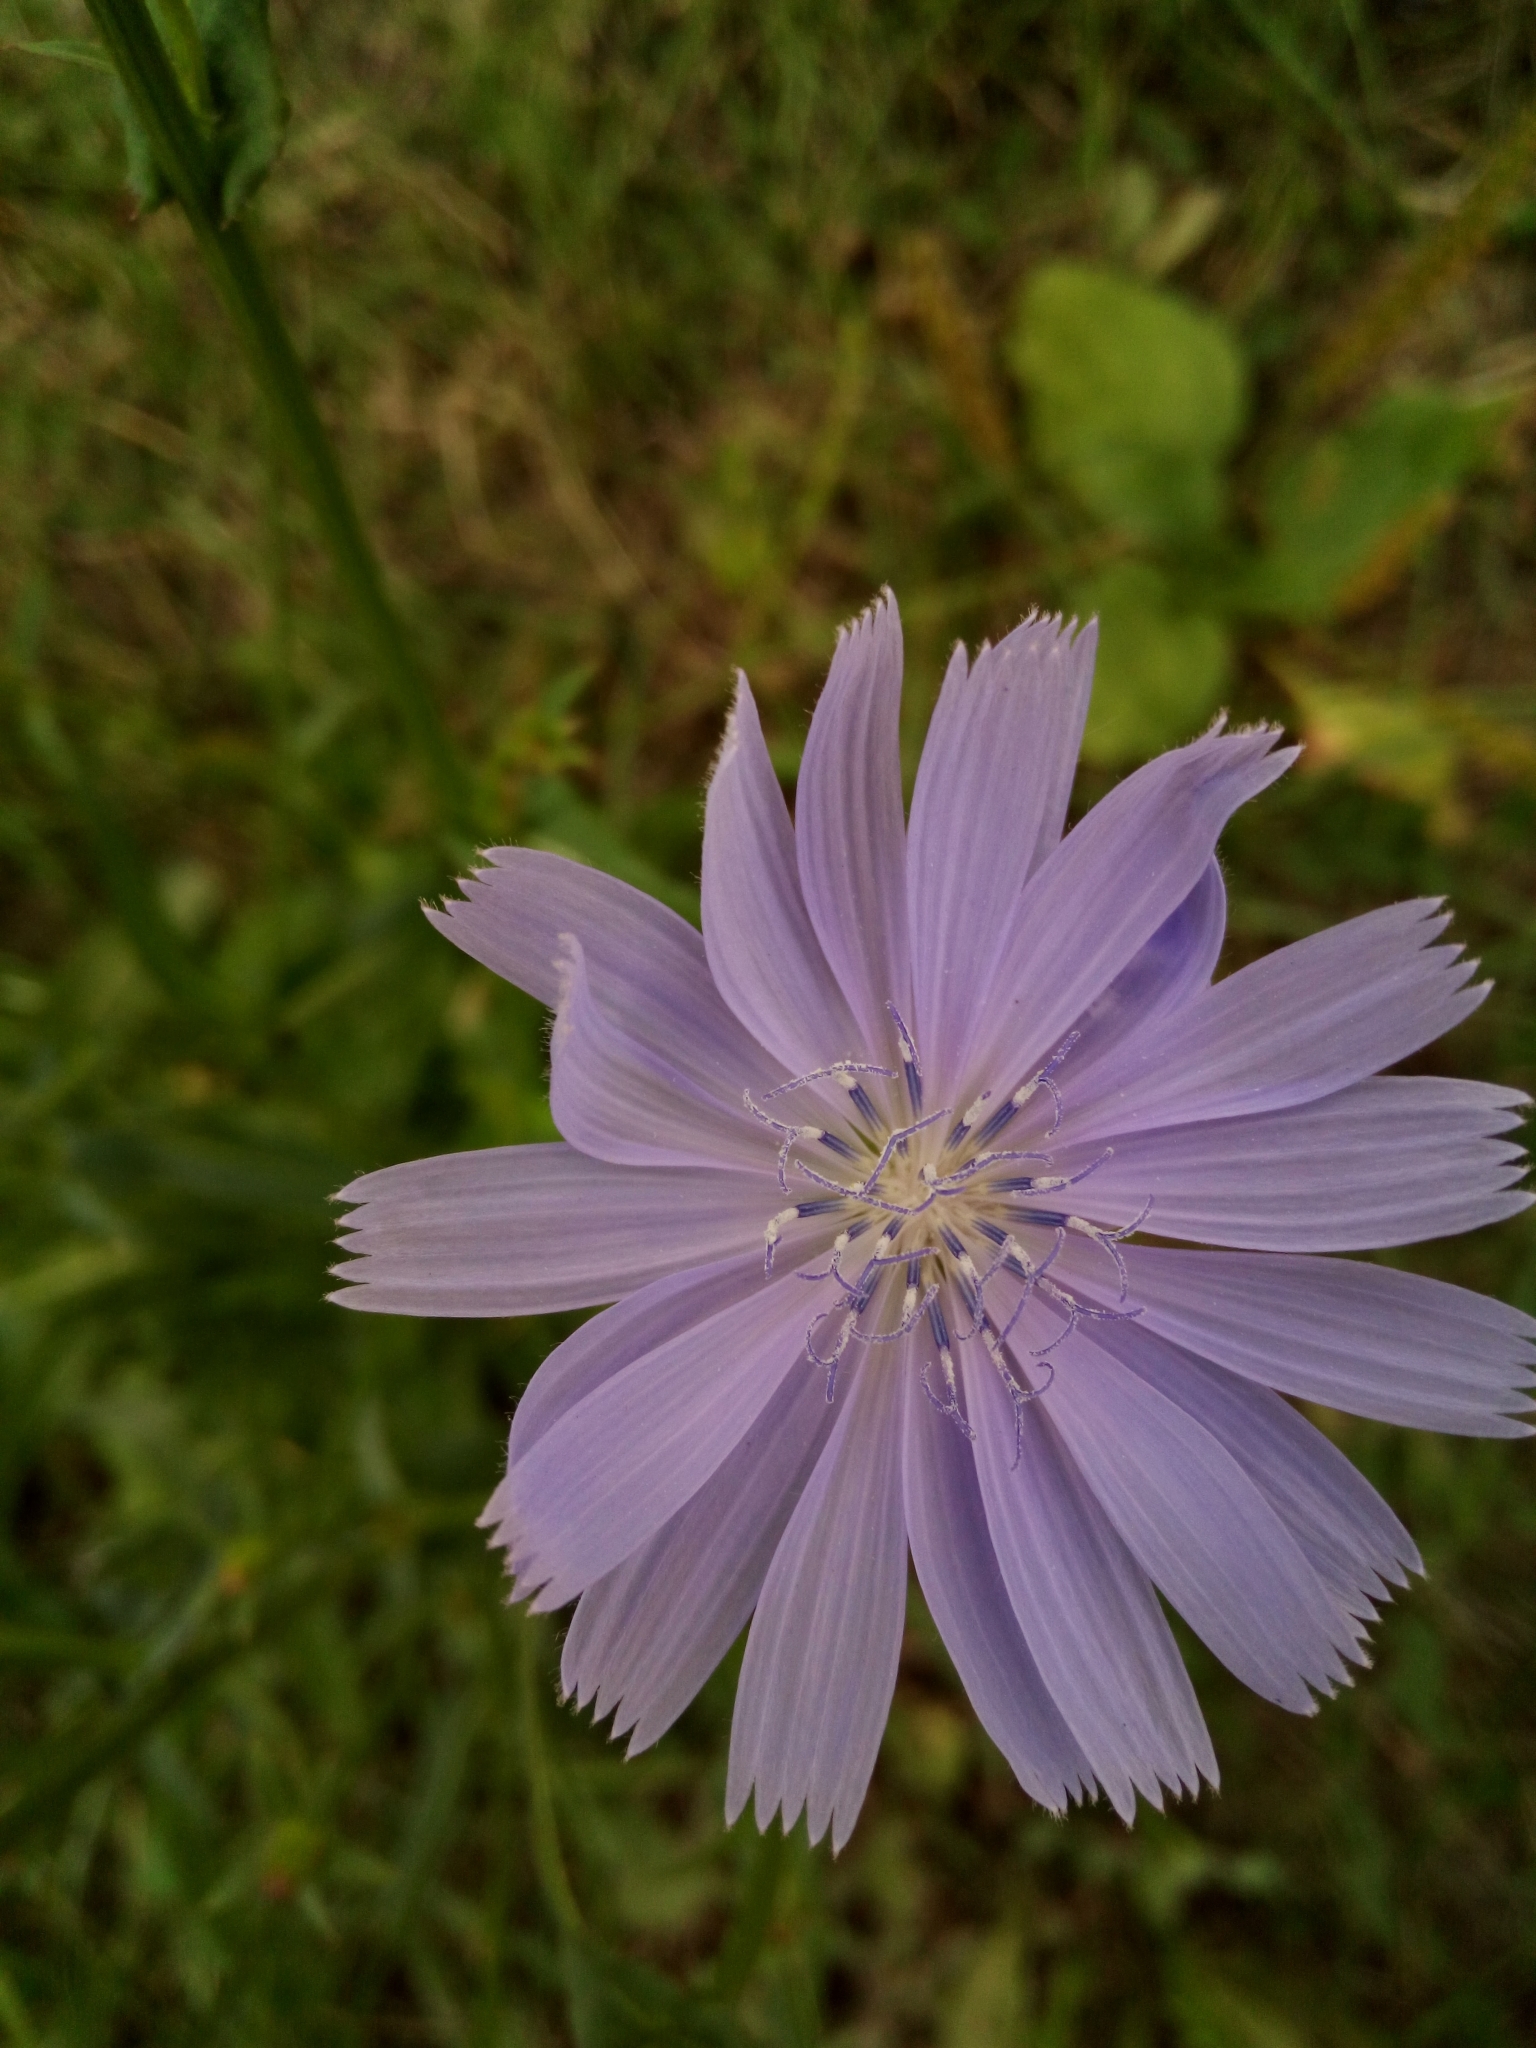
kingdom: Plantae
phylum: Tracheophyta
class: Magnoliopsida
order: Asterales
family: Asteraceae
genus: Cichorium
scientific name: Cichorium intybus
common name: Chicory
